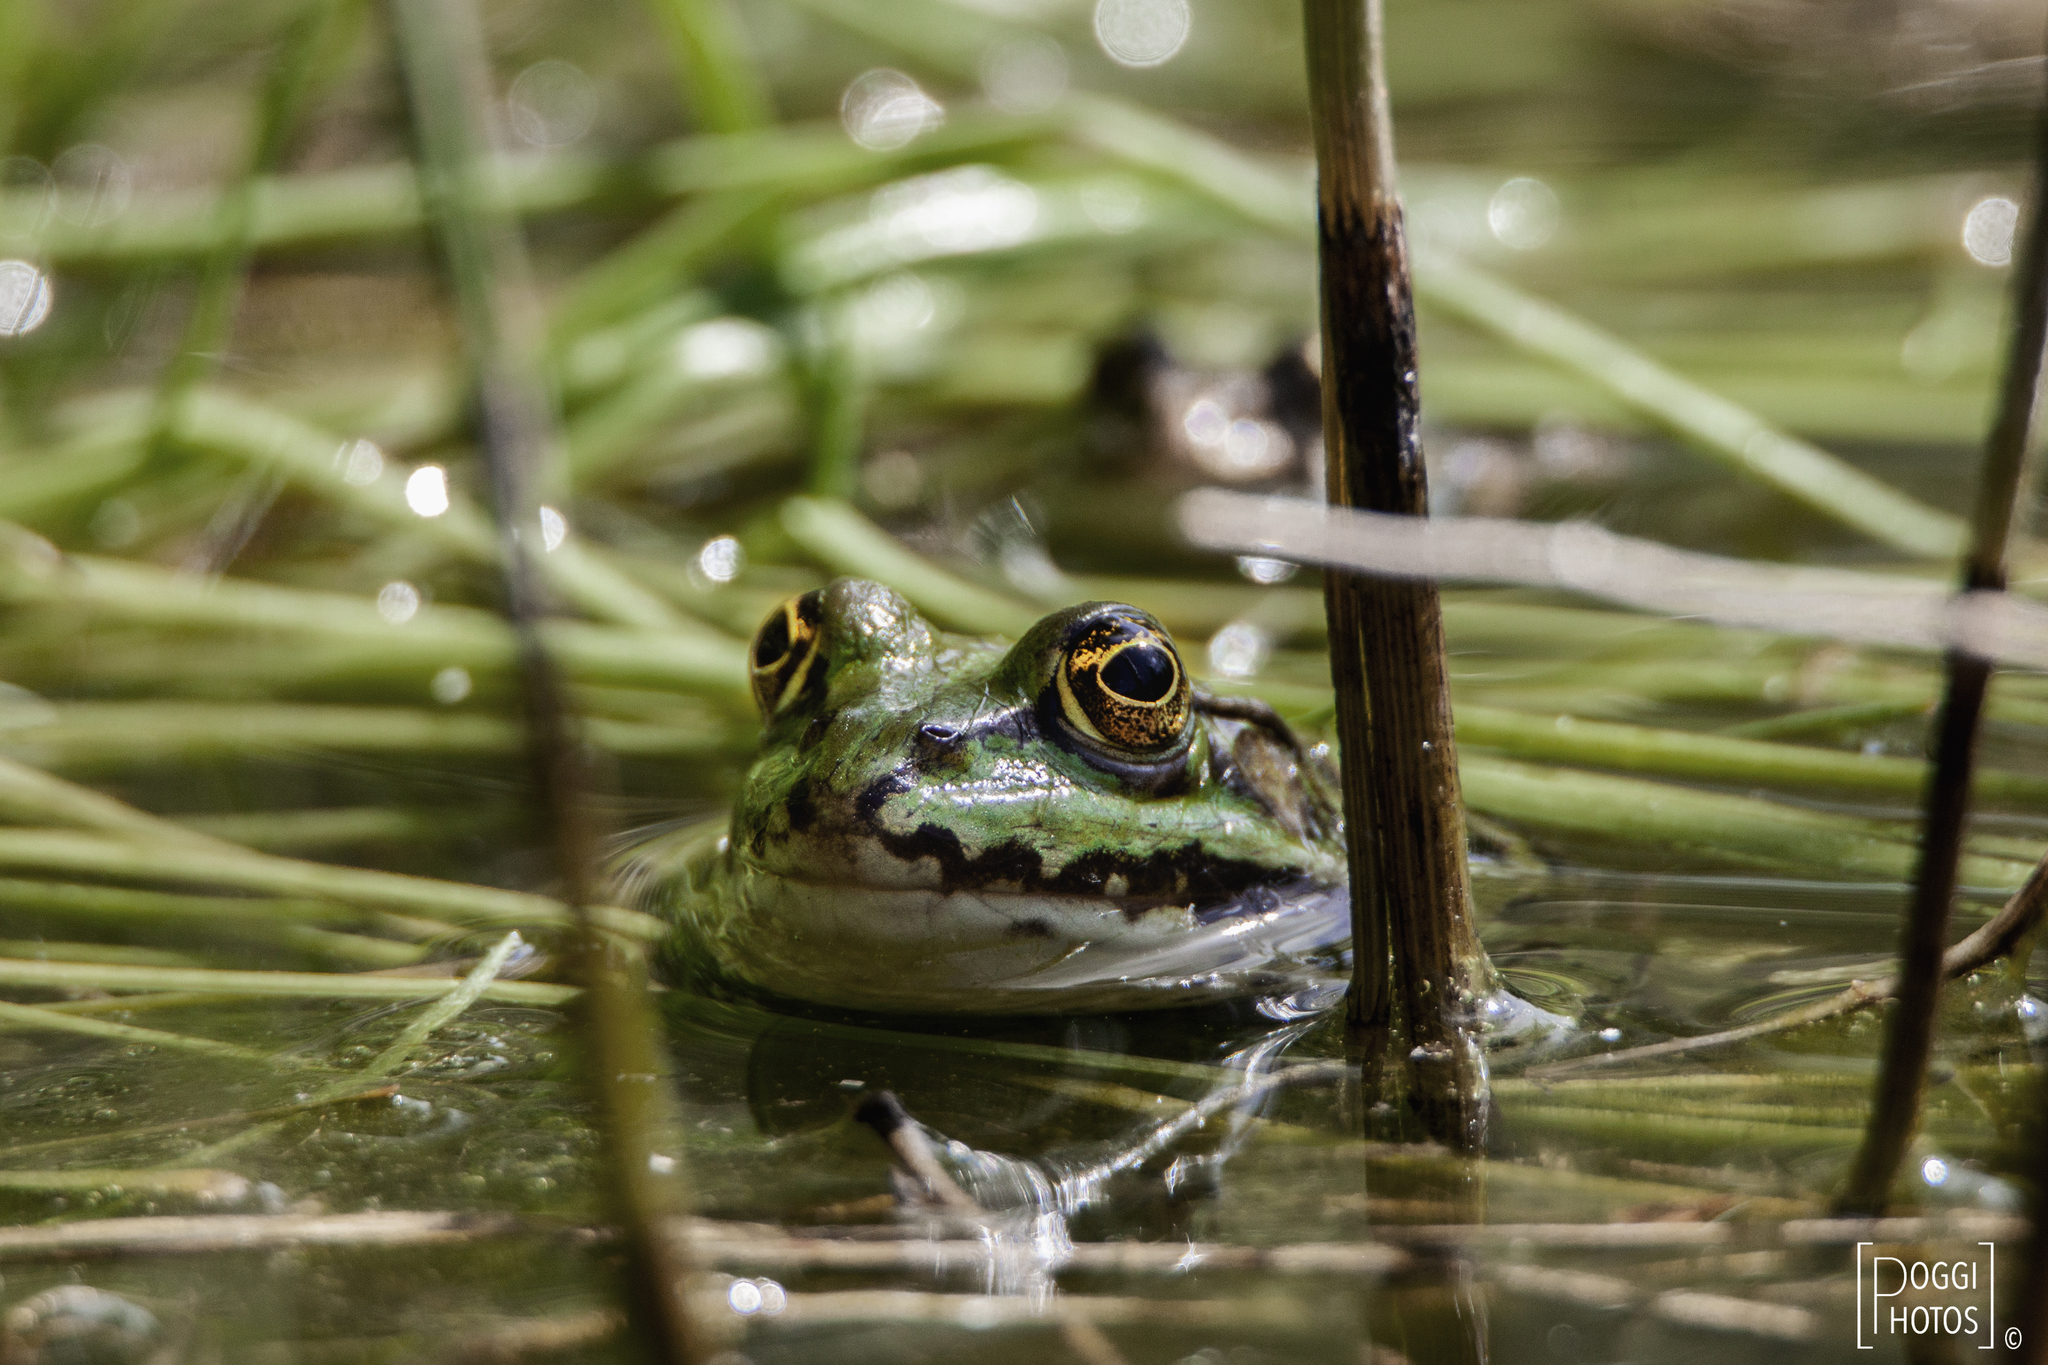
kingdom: Animalia
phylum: Chordata
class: Amphibia
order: Anura
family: Ranidae
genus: Pelophylax
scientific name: Pelophylax
